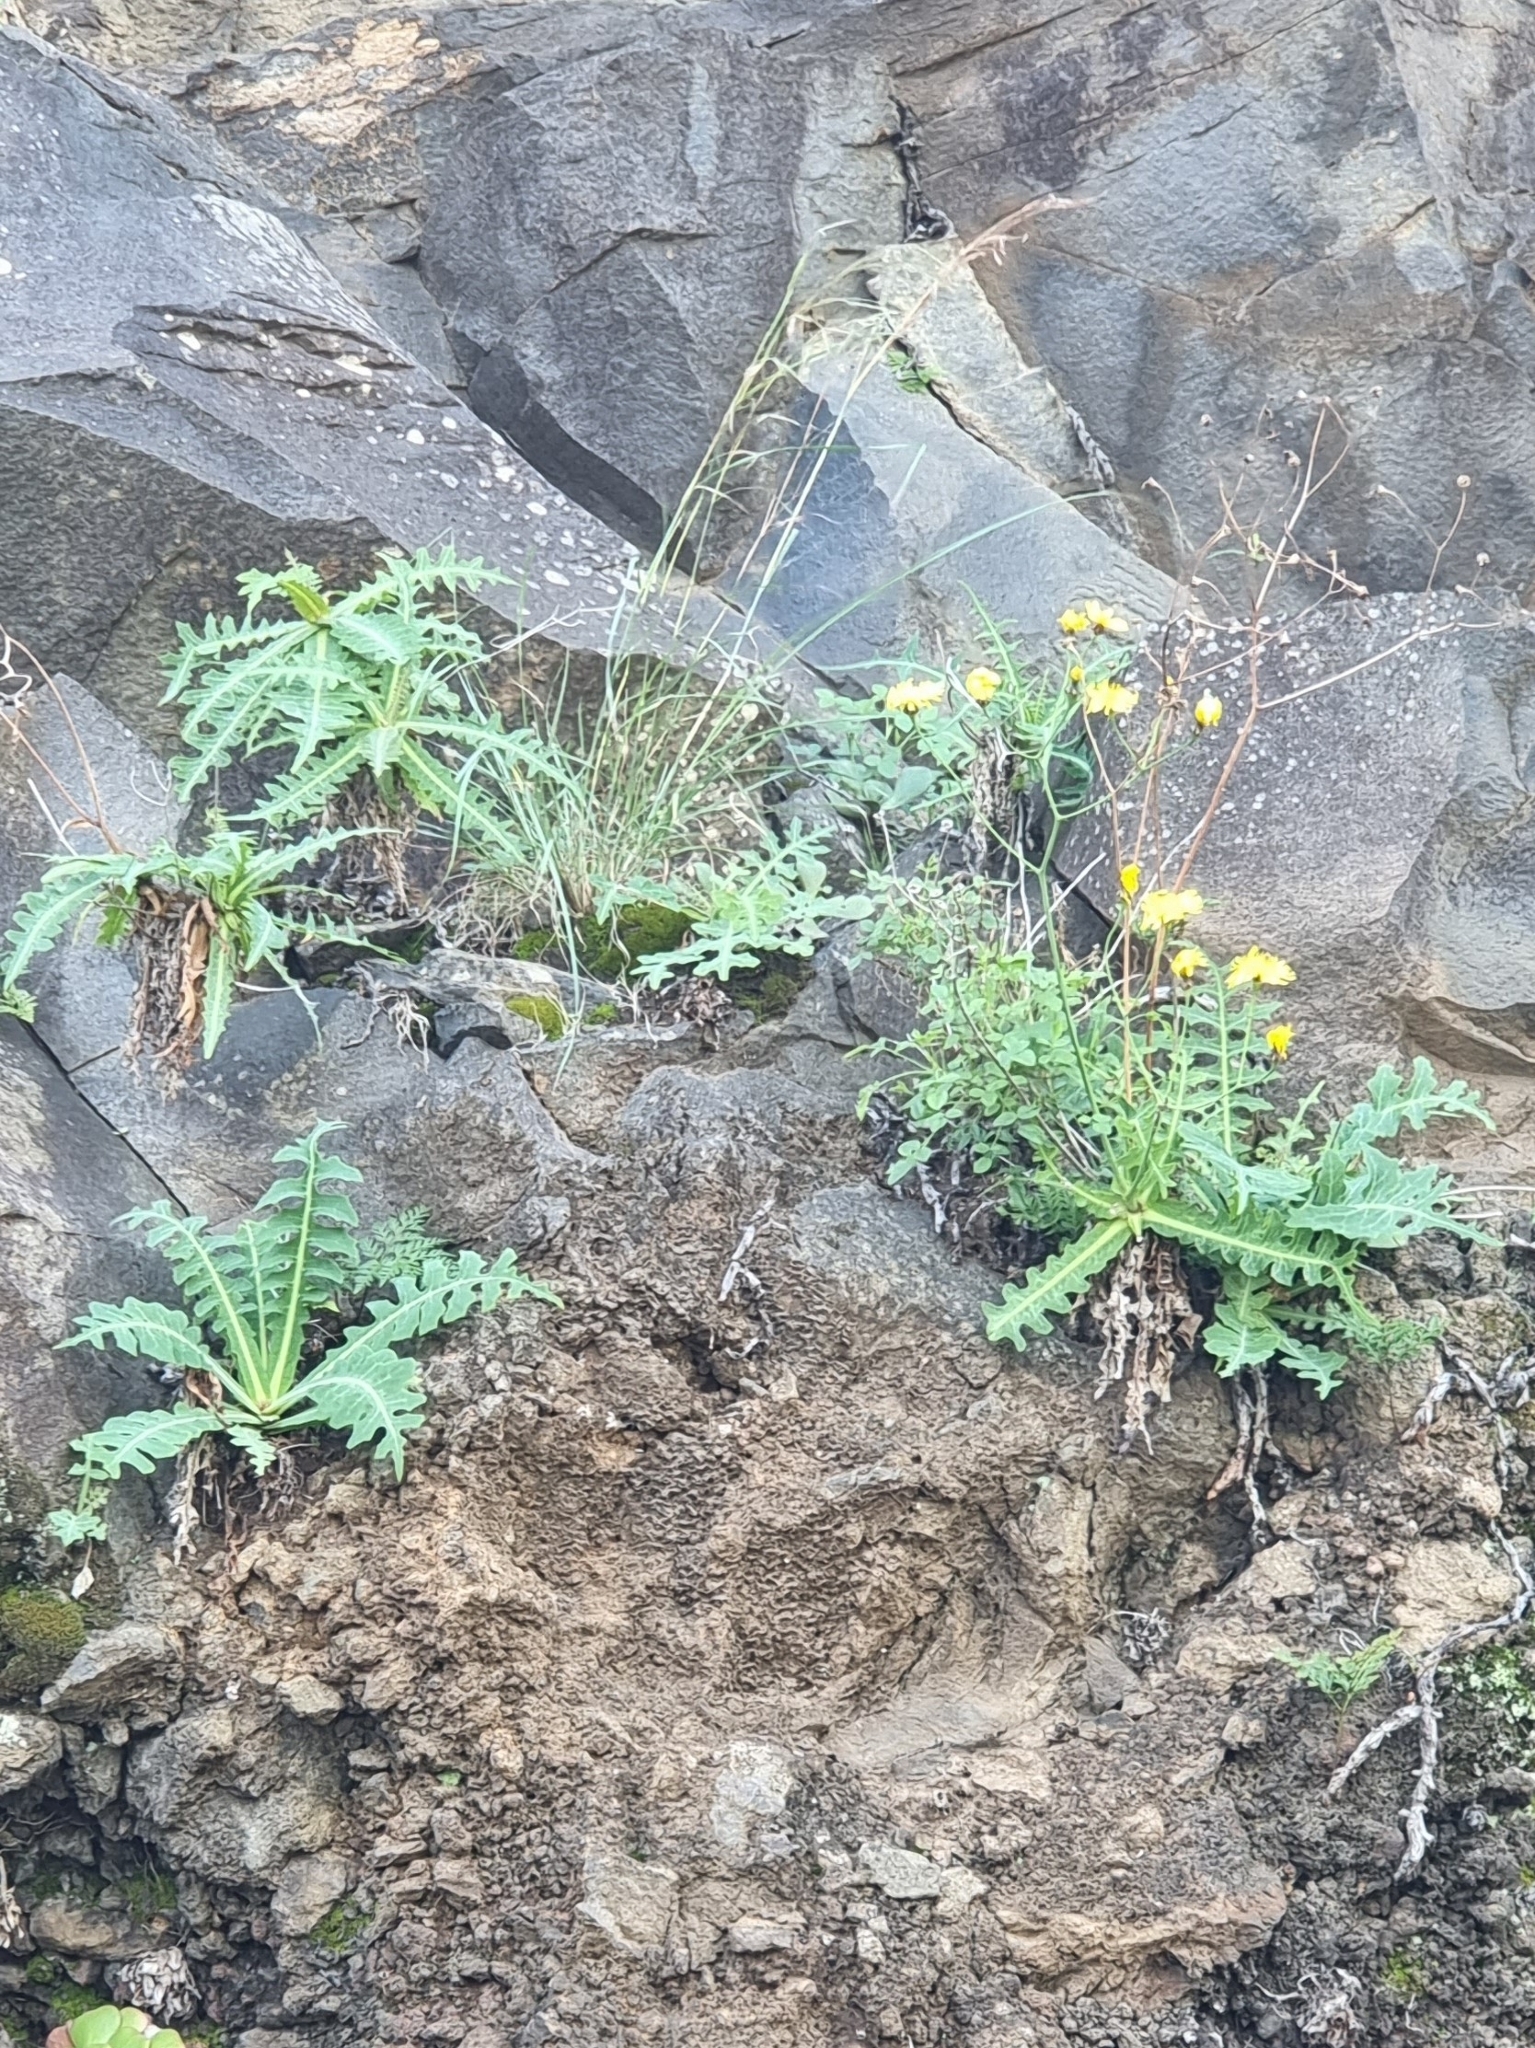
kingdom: Plantae
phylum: Tracheophyta
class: Magnoliopsida
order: Asterales
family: Asteraceae
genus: Sonchus
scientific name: Sonchus ustulatus
